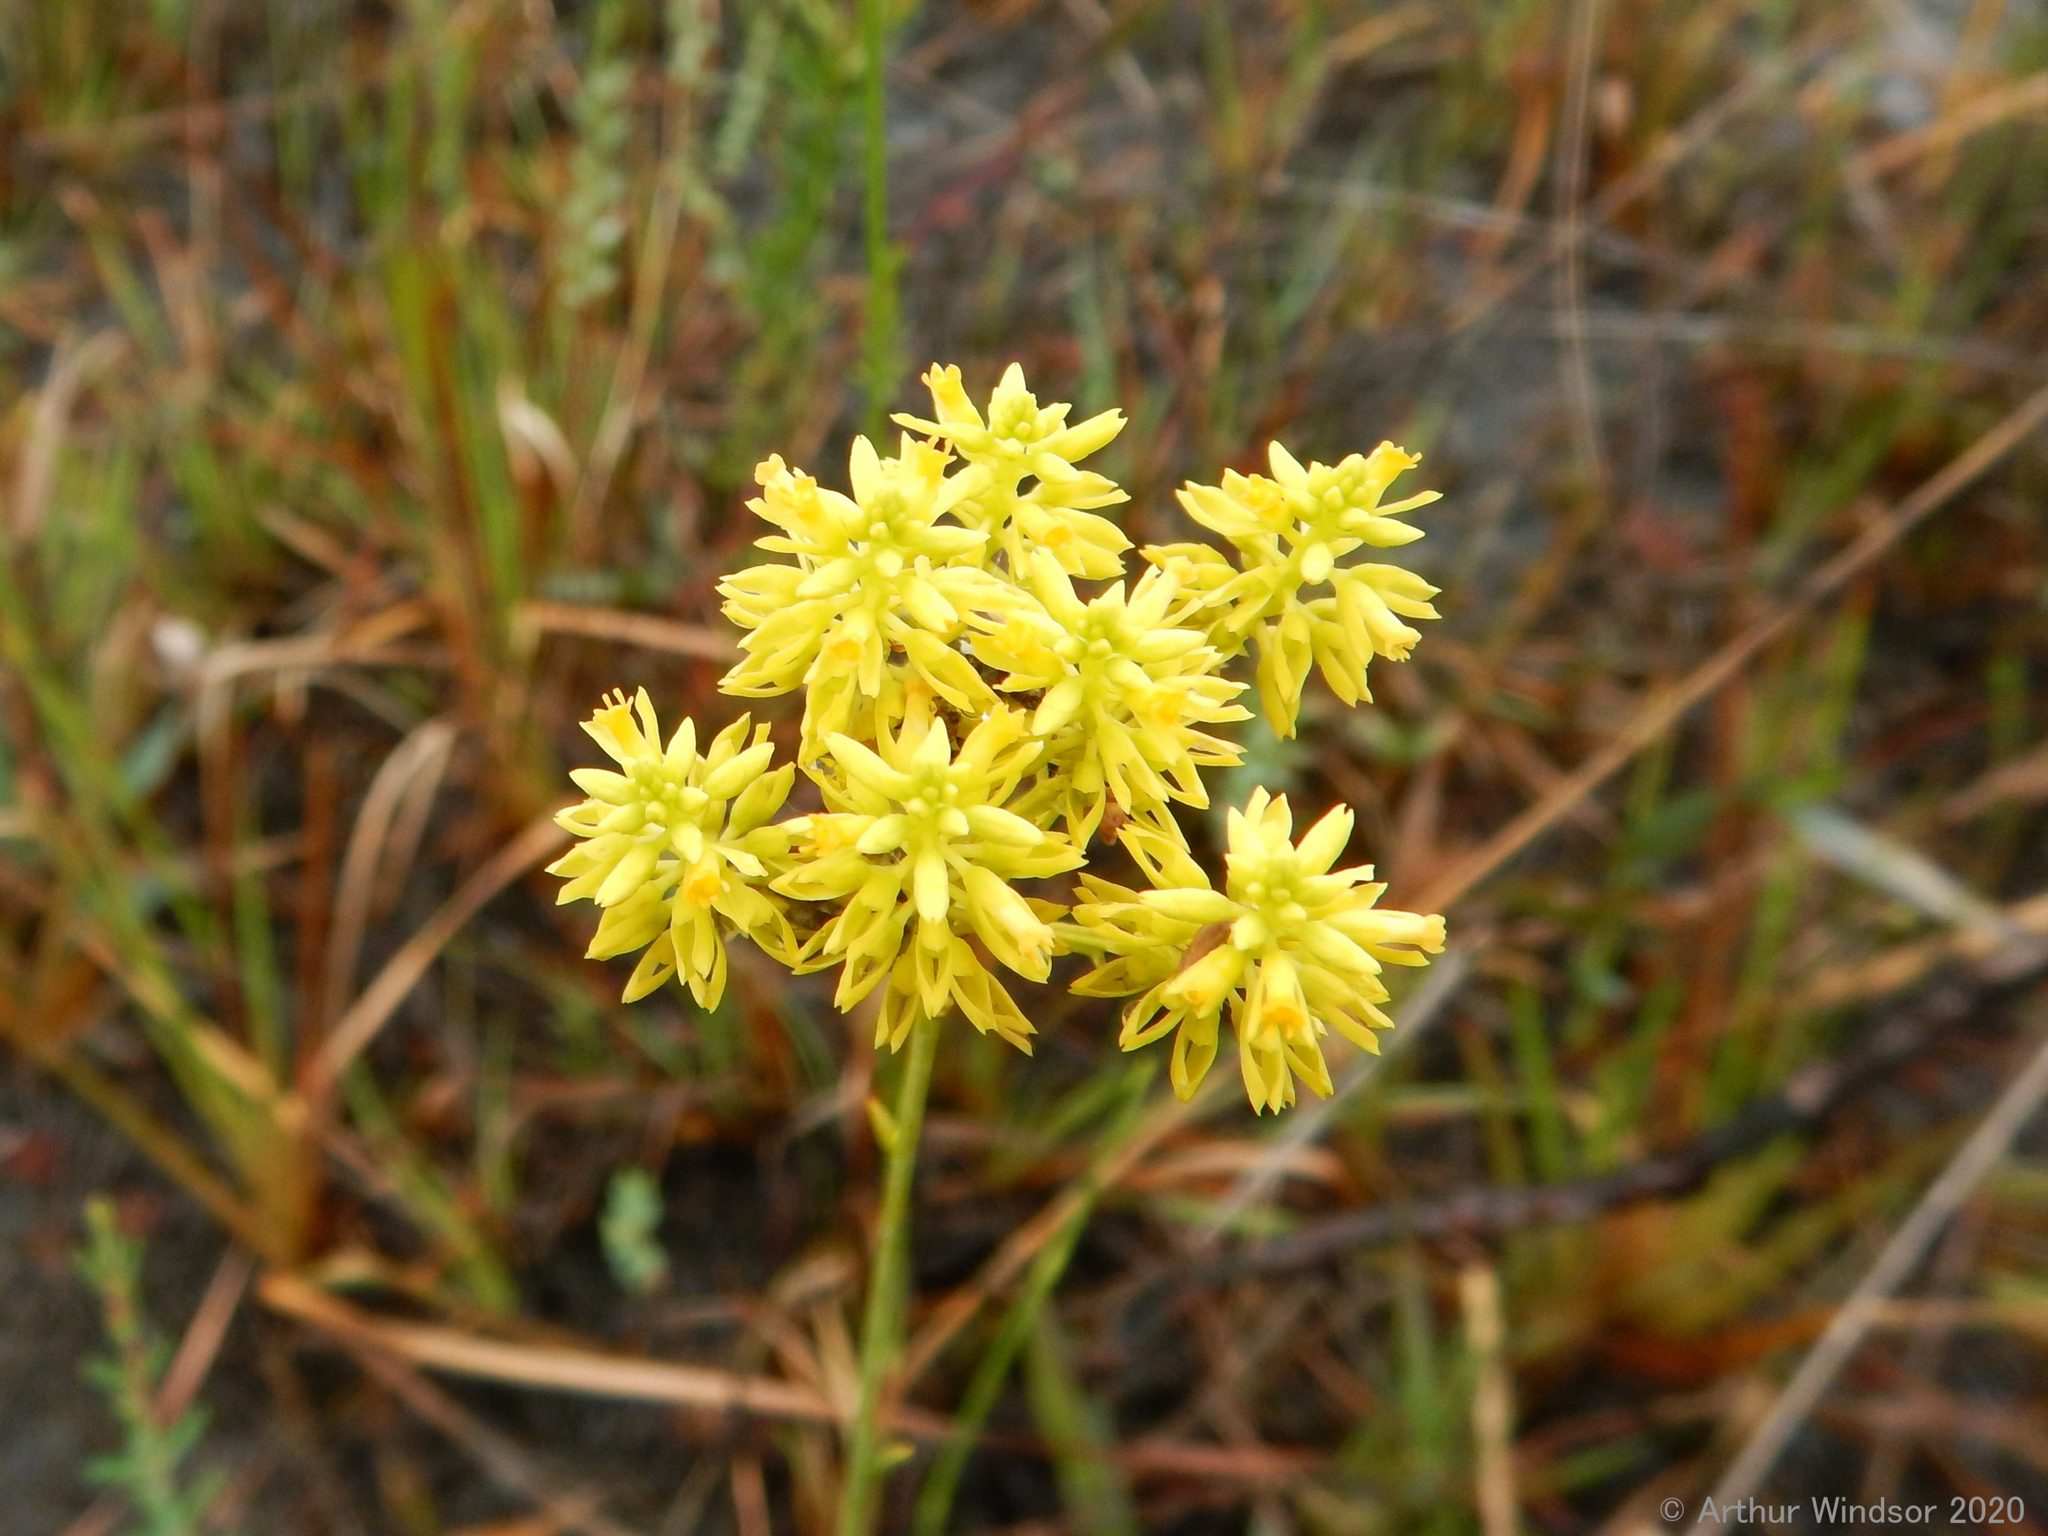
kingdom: Plantae
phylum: Tracheophyta
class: Magnoliopsida
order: Fabales
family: Polygalaceae
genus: Polygala
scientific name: Polygala cymosa
